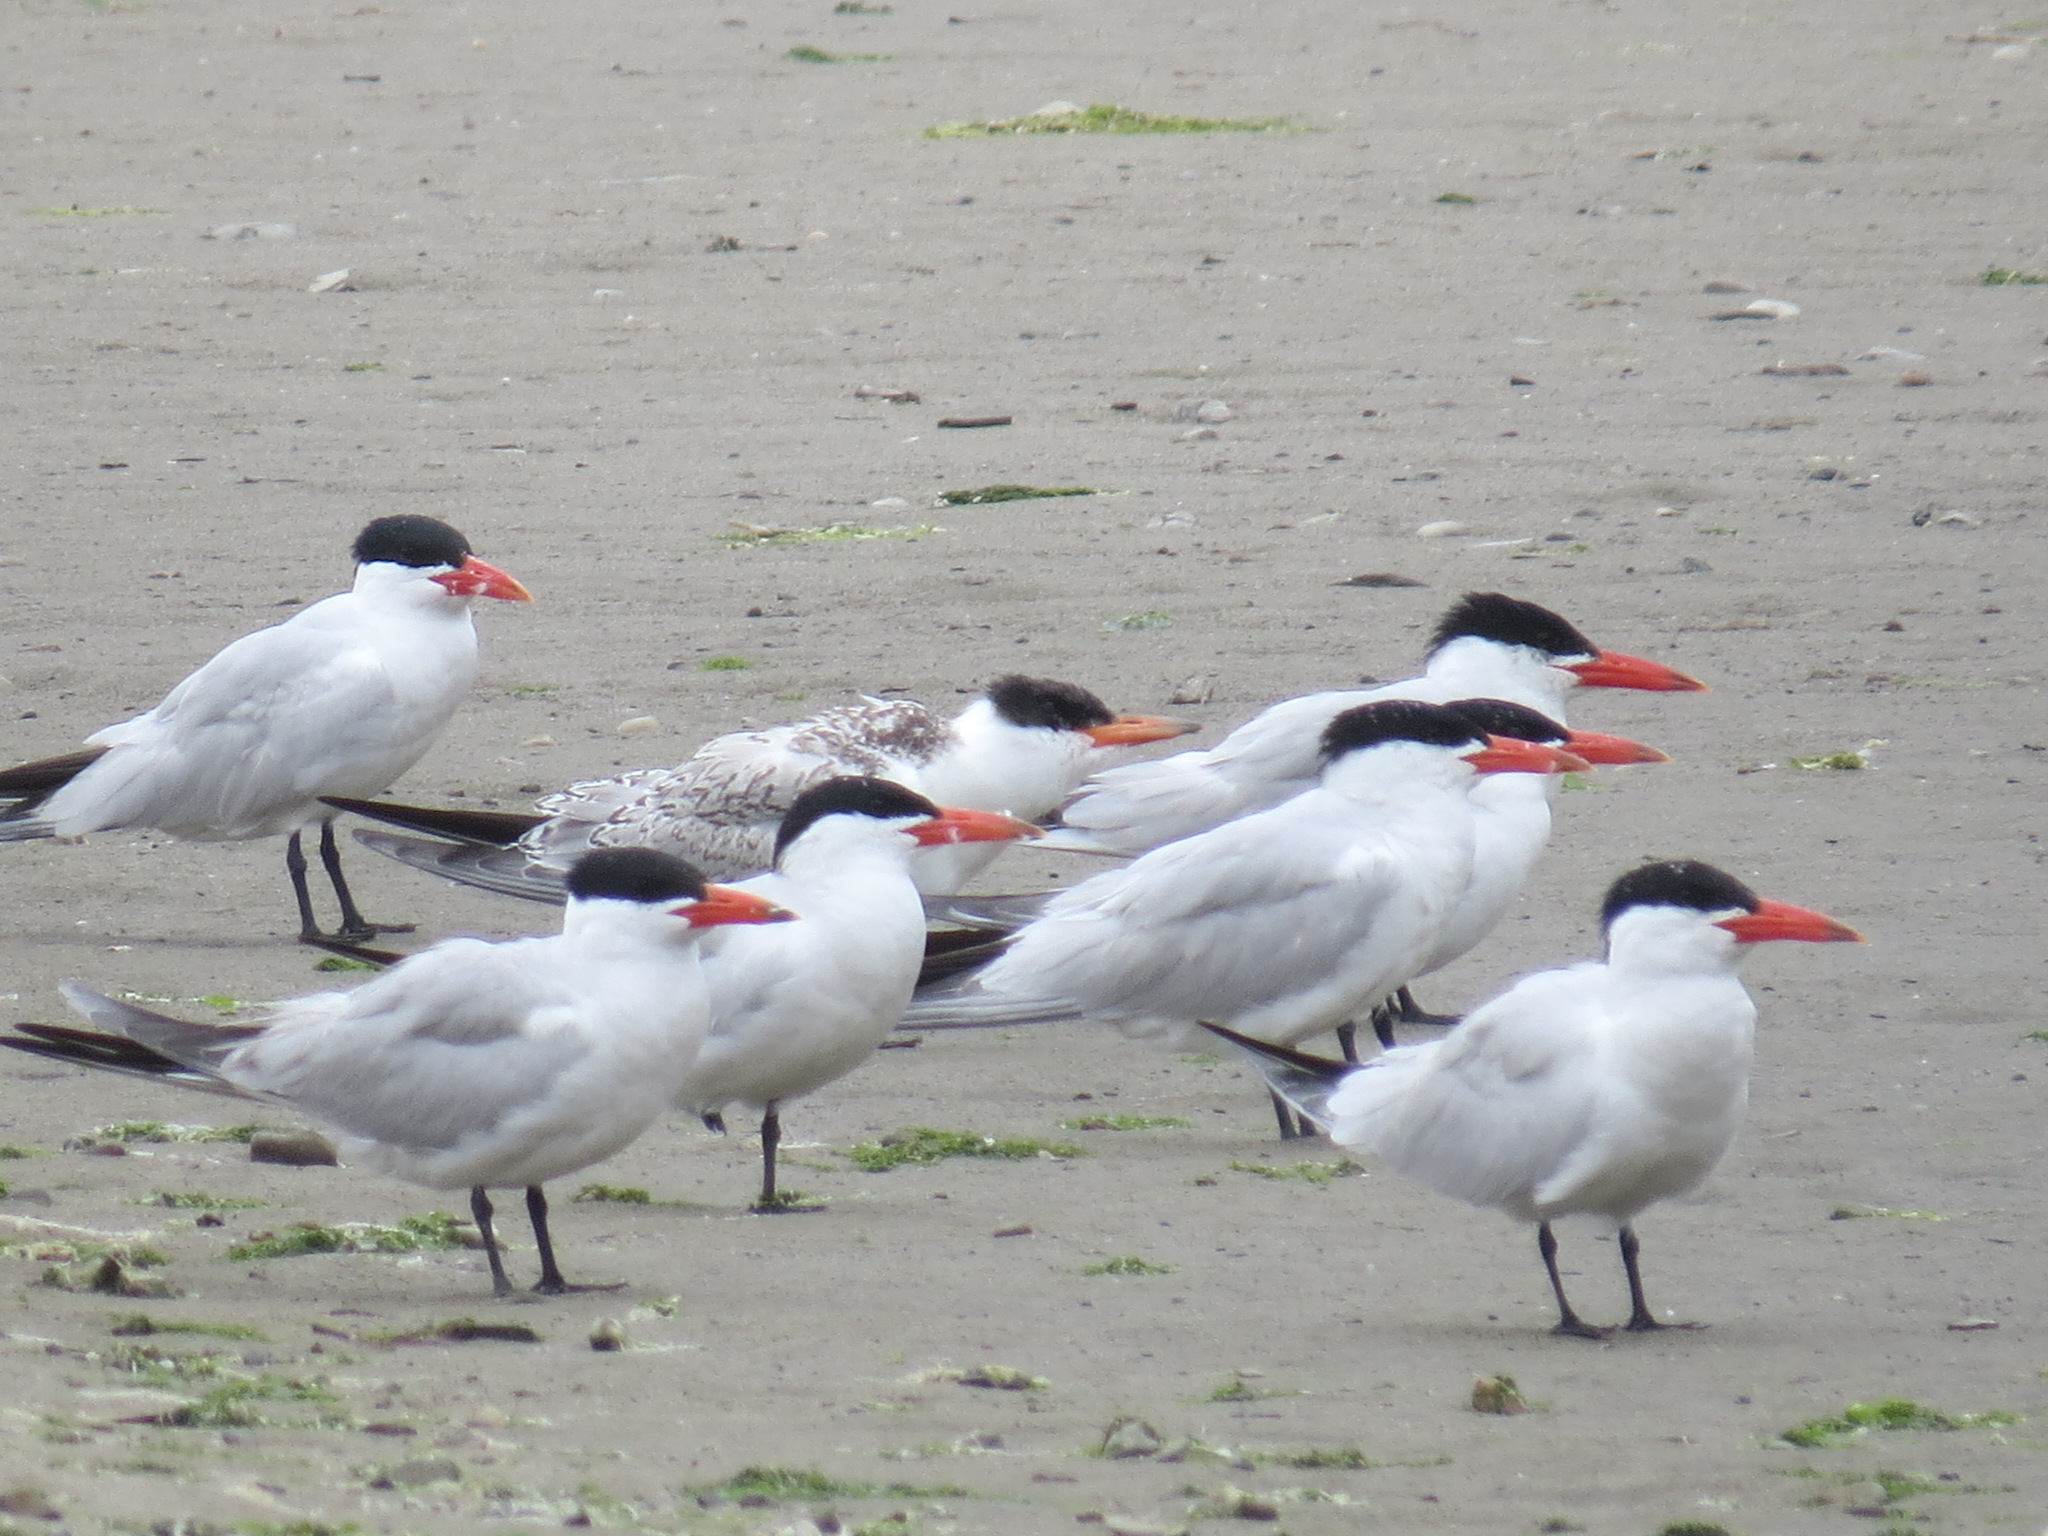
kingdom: Animalia
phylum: Chordata
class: Aves
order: Charadriiformes
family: Laridae
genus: Hydroprogne
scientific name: Hydroprogne caspia
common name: Caspian tern
